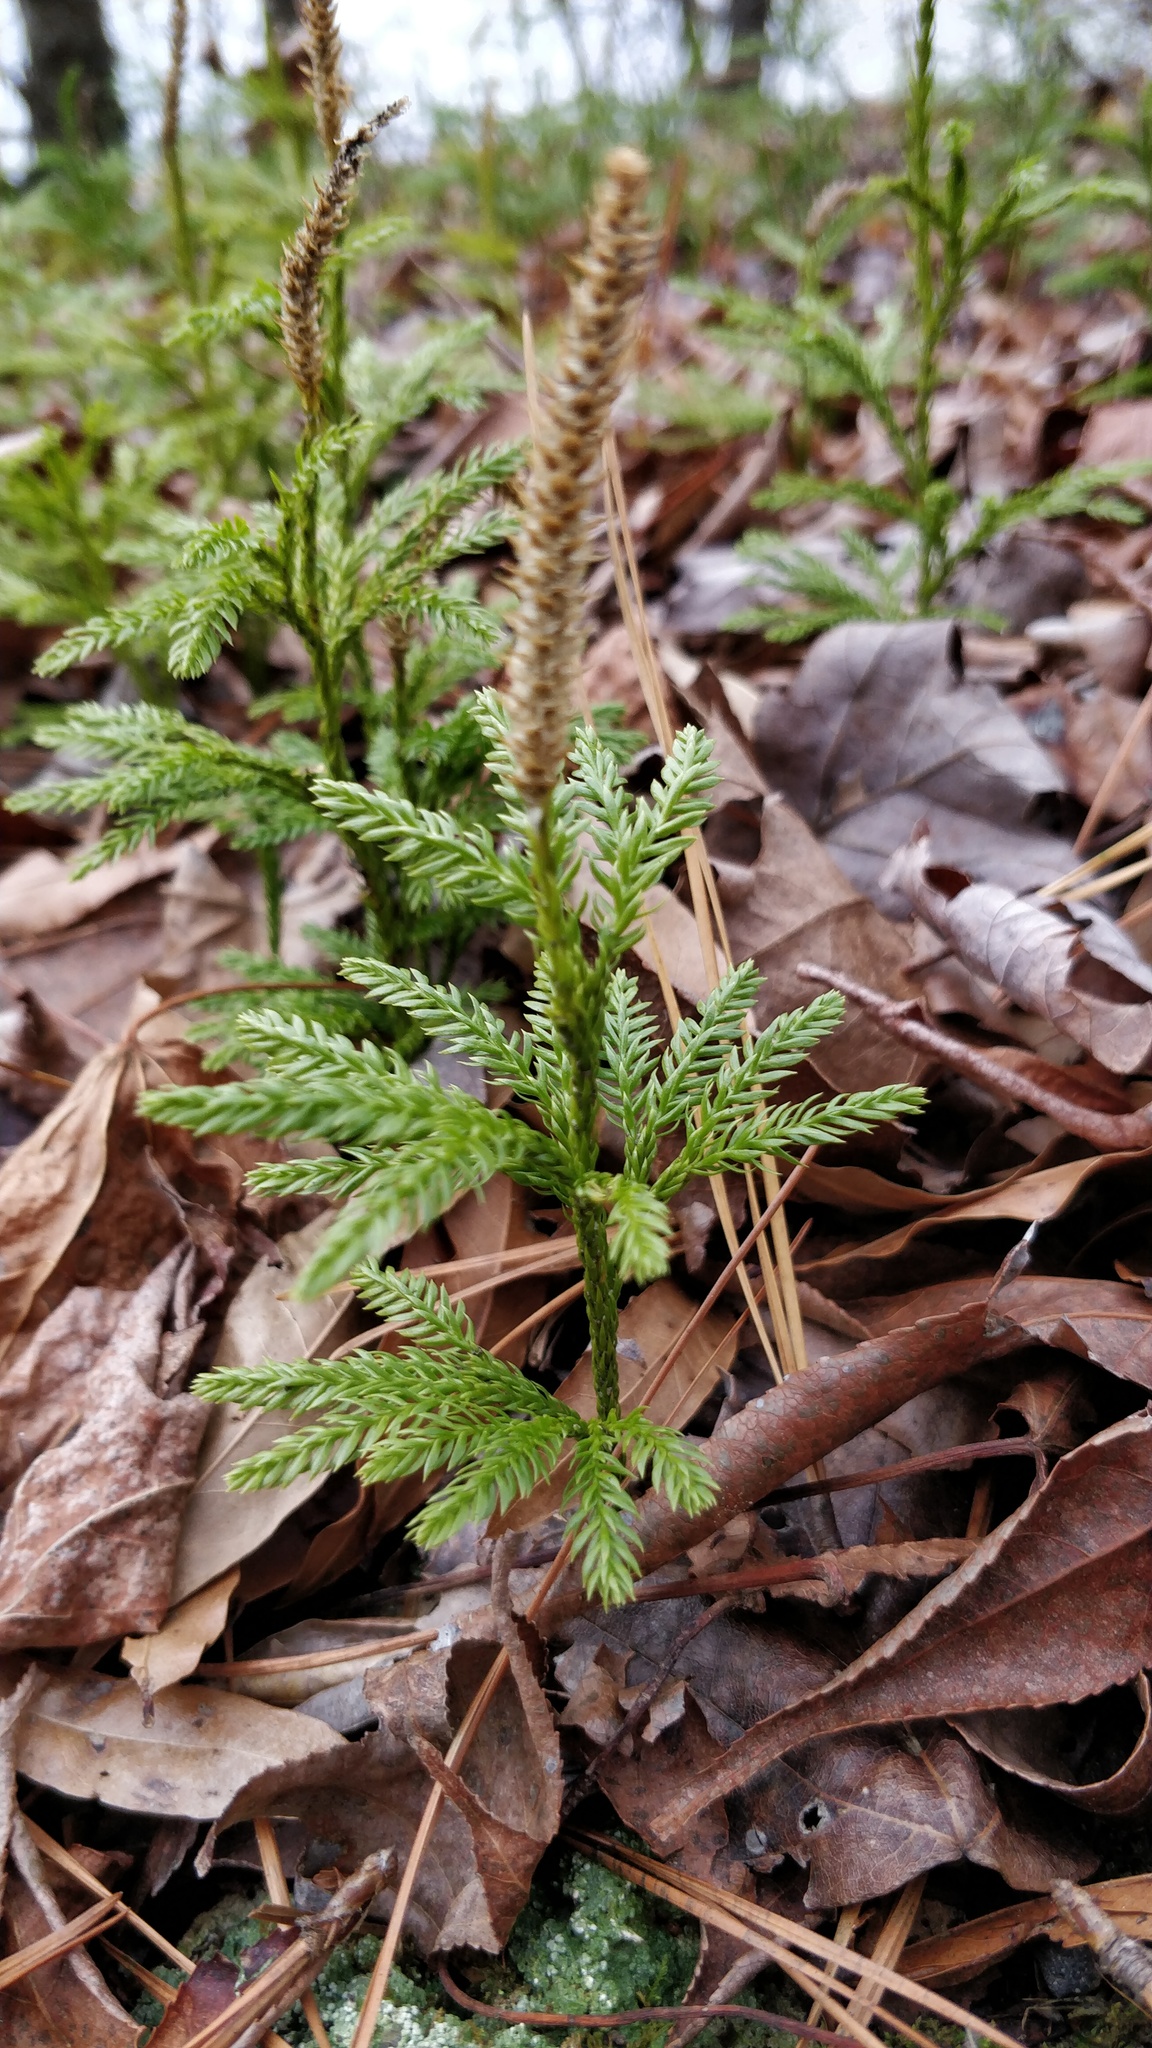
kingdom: Plantae
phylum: Tracheophyta
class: Lycopodiopsida
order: Lycopodiales
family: Lycopodiaceae
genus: Dendrolycopodium
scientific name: Dendrolycopodium obscurum
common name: Common ground-pine
